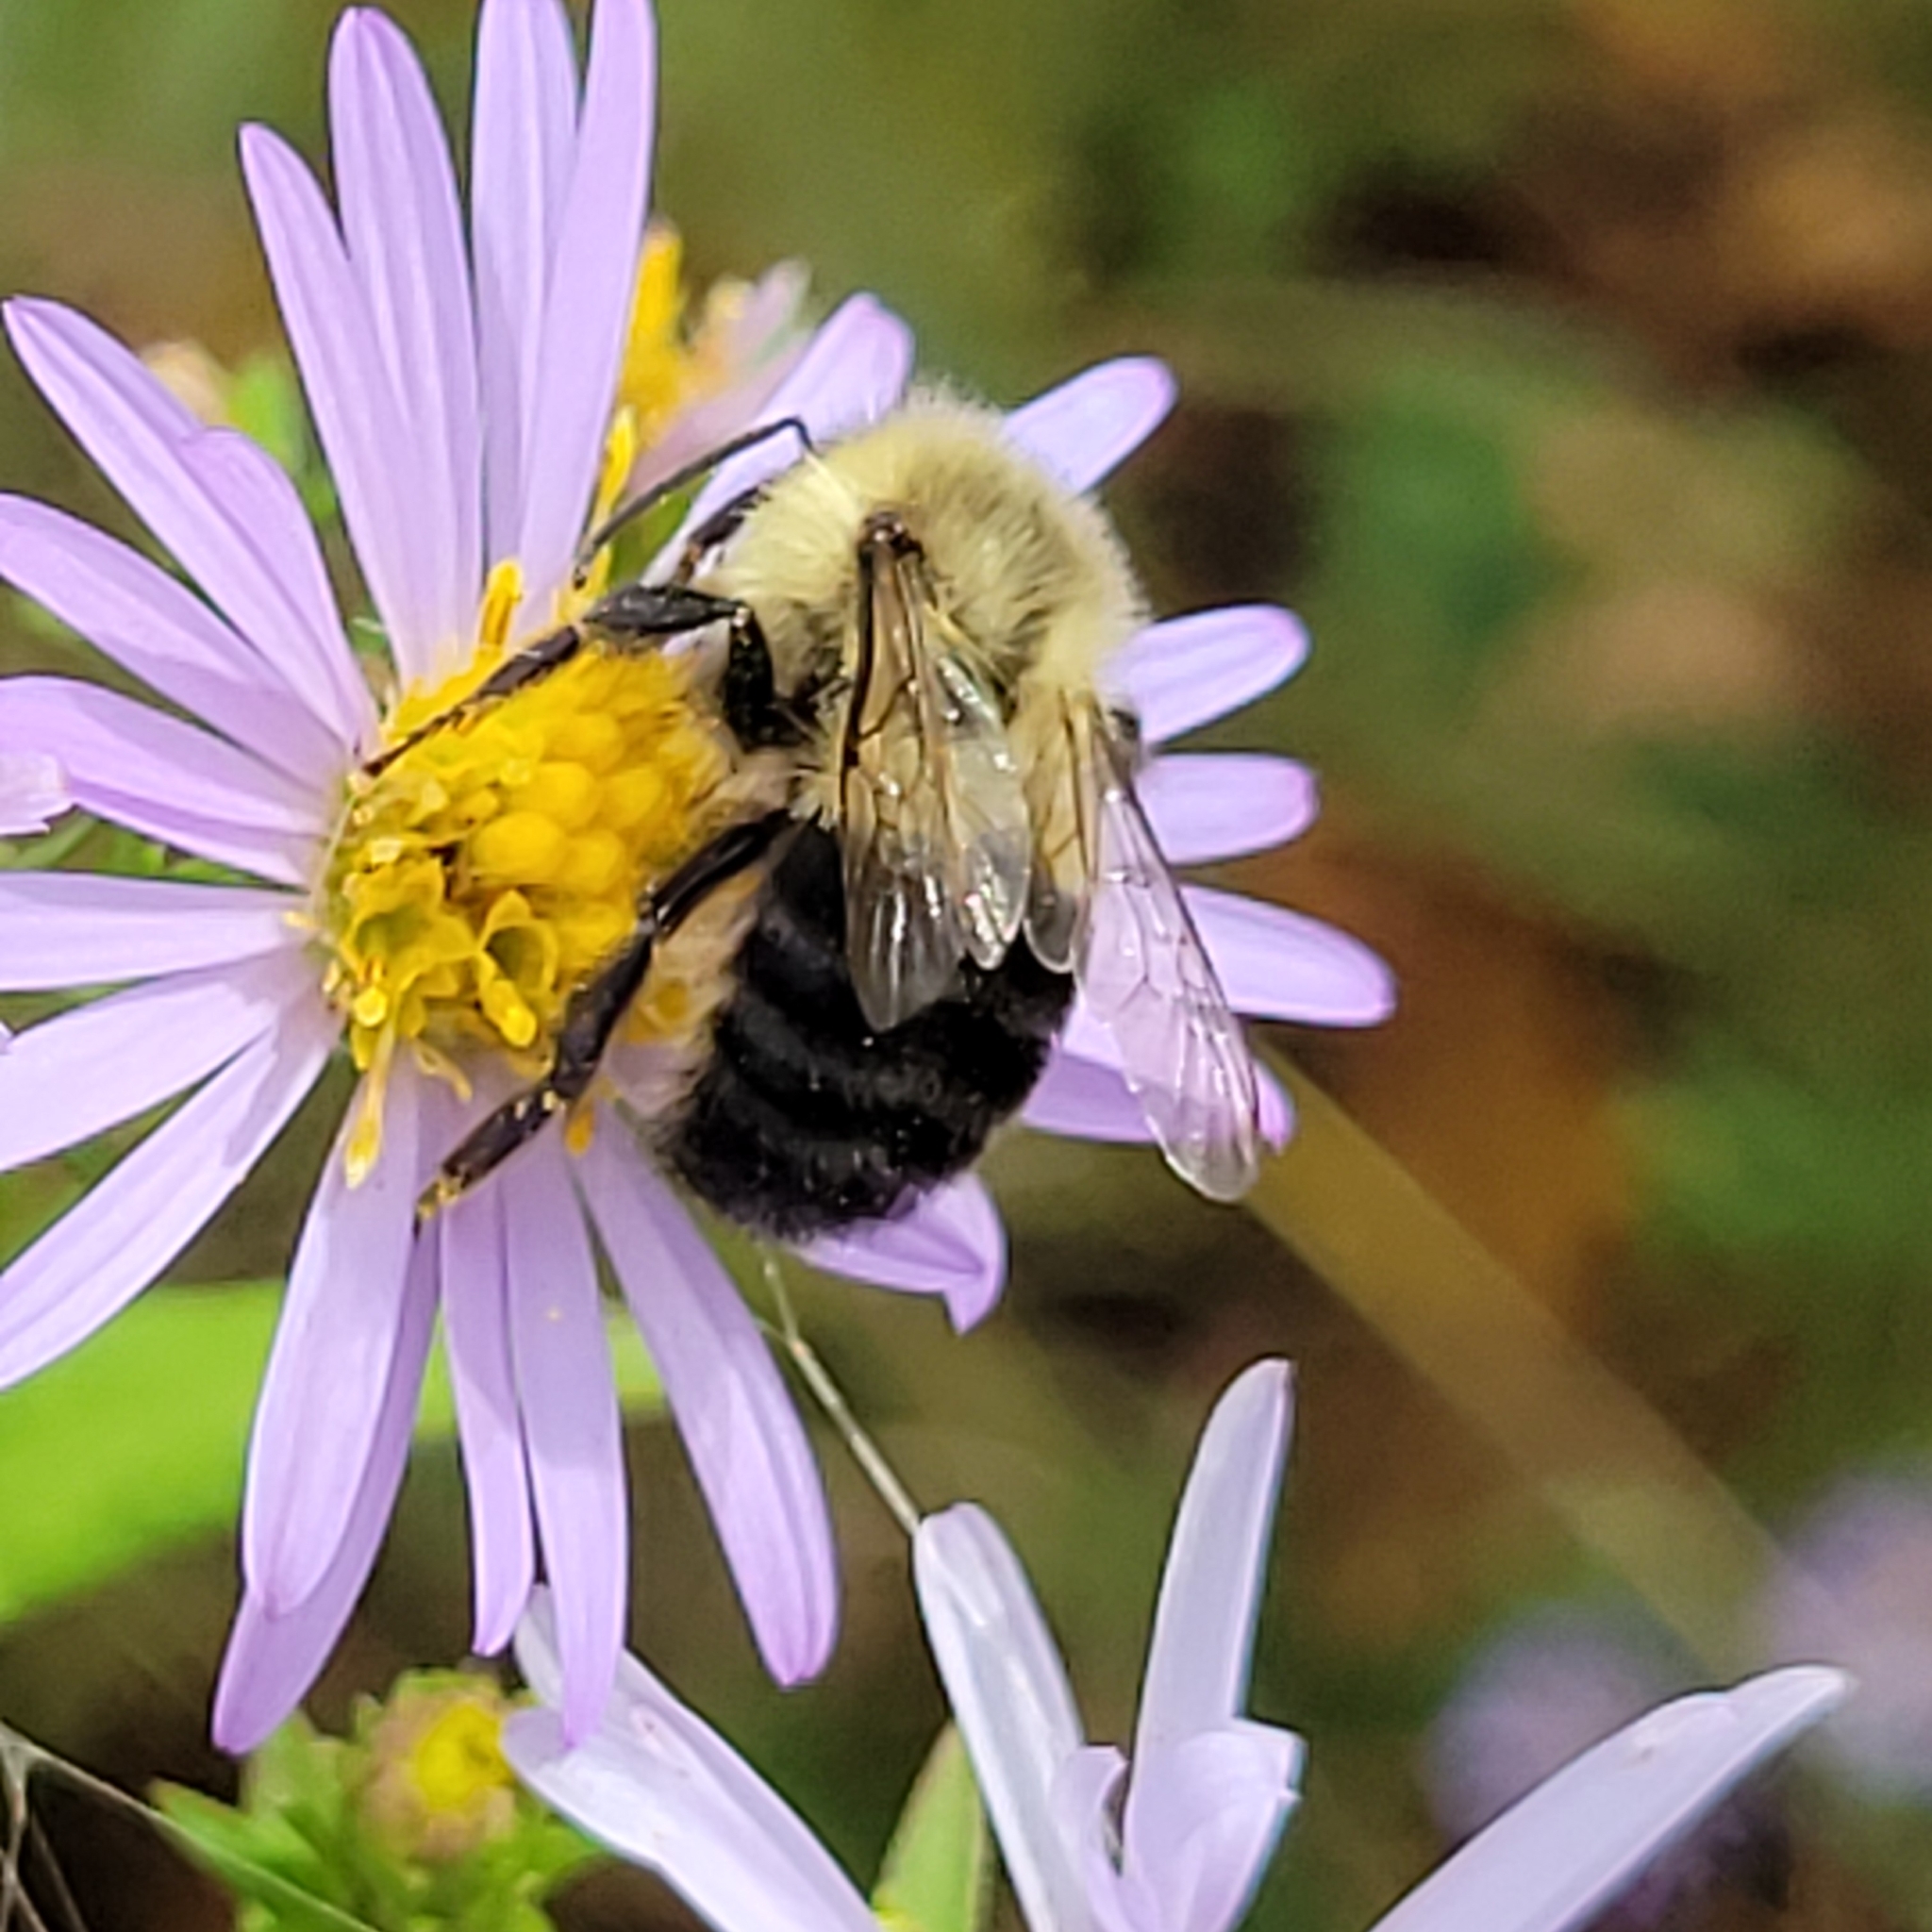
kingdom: Animalia
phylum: Arthropoda
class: Insecta
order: Hymenoptera
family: Apidae
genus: Bombus
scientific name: Bombus impatiens
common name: Common eastern bumble bee
